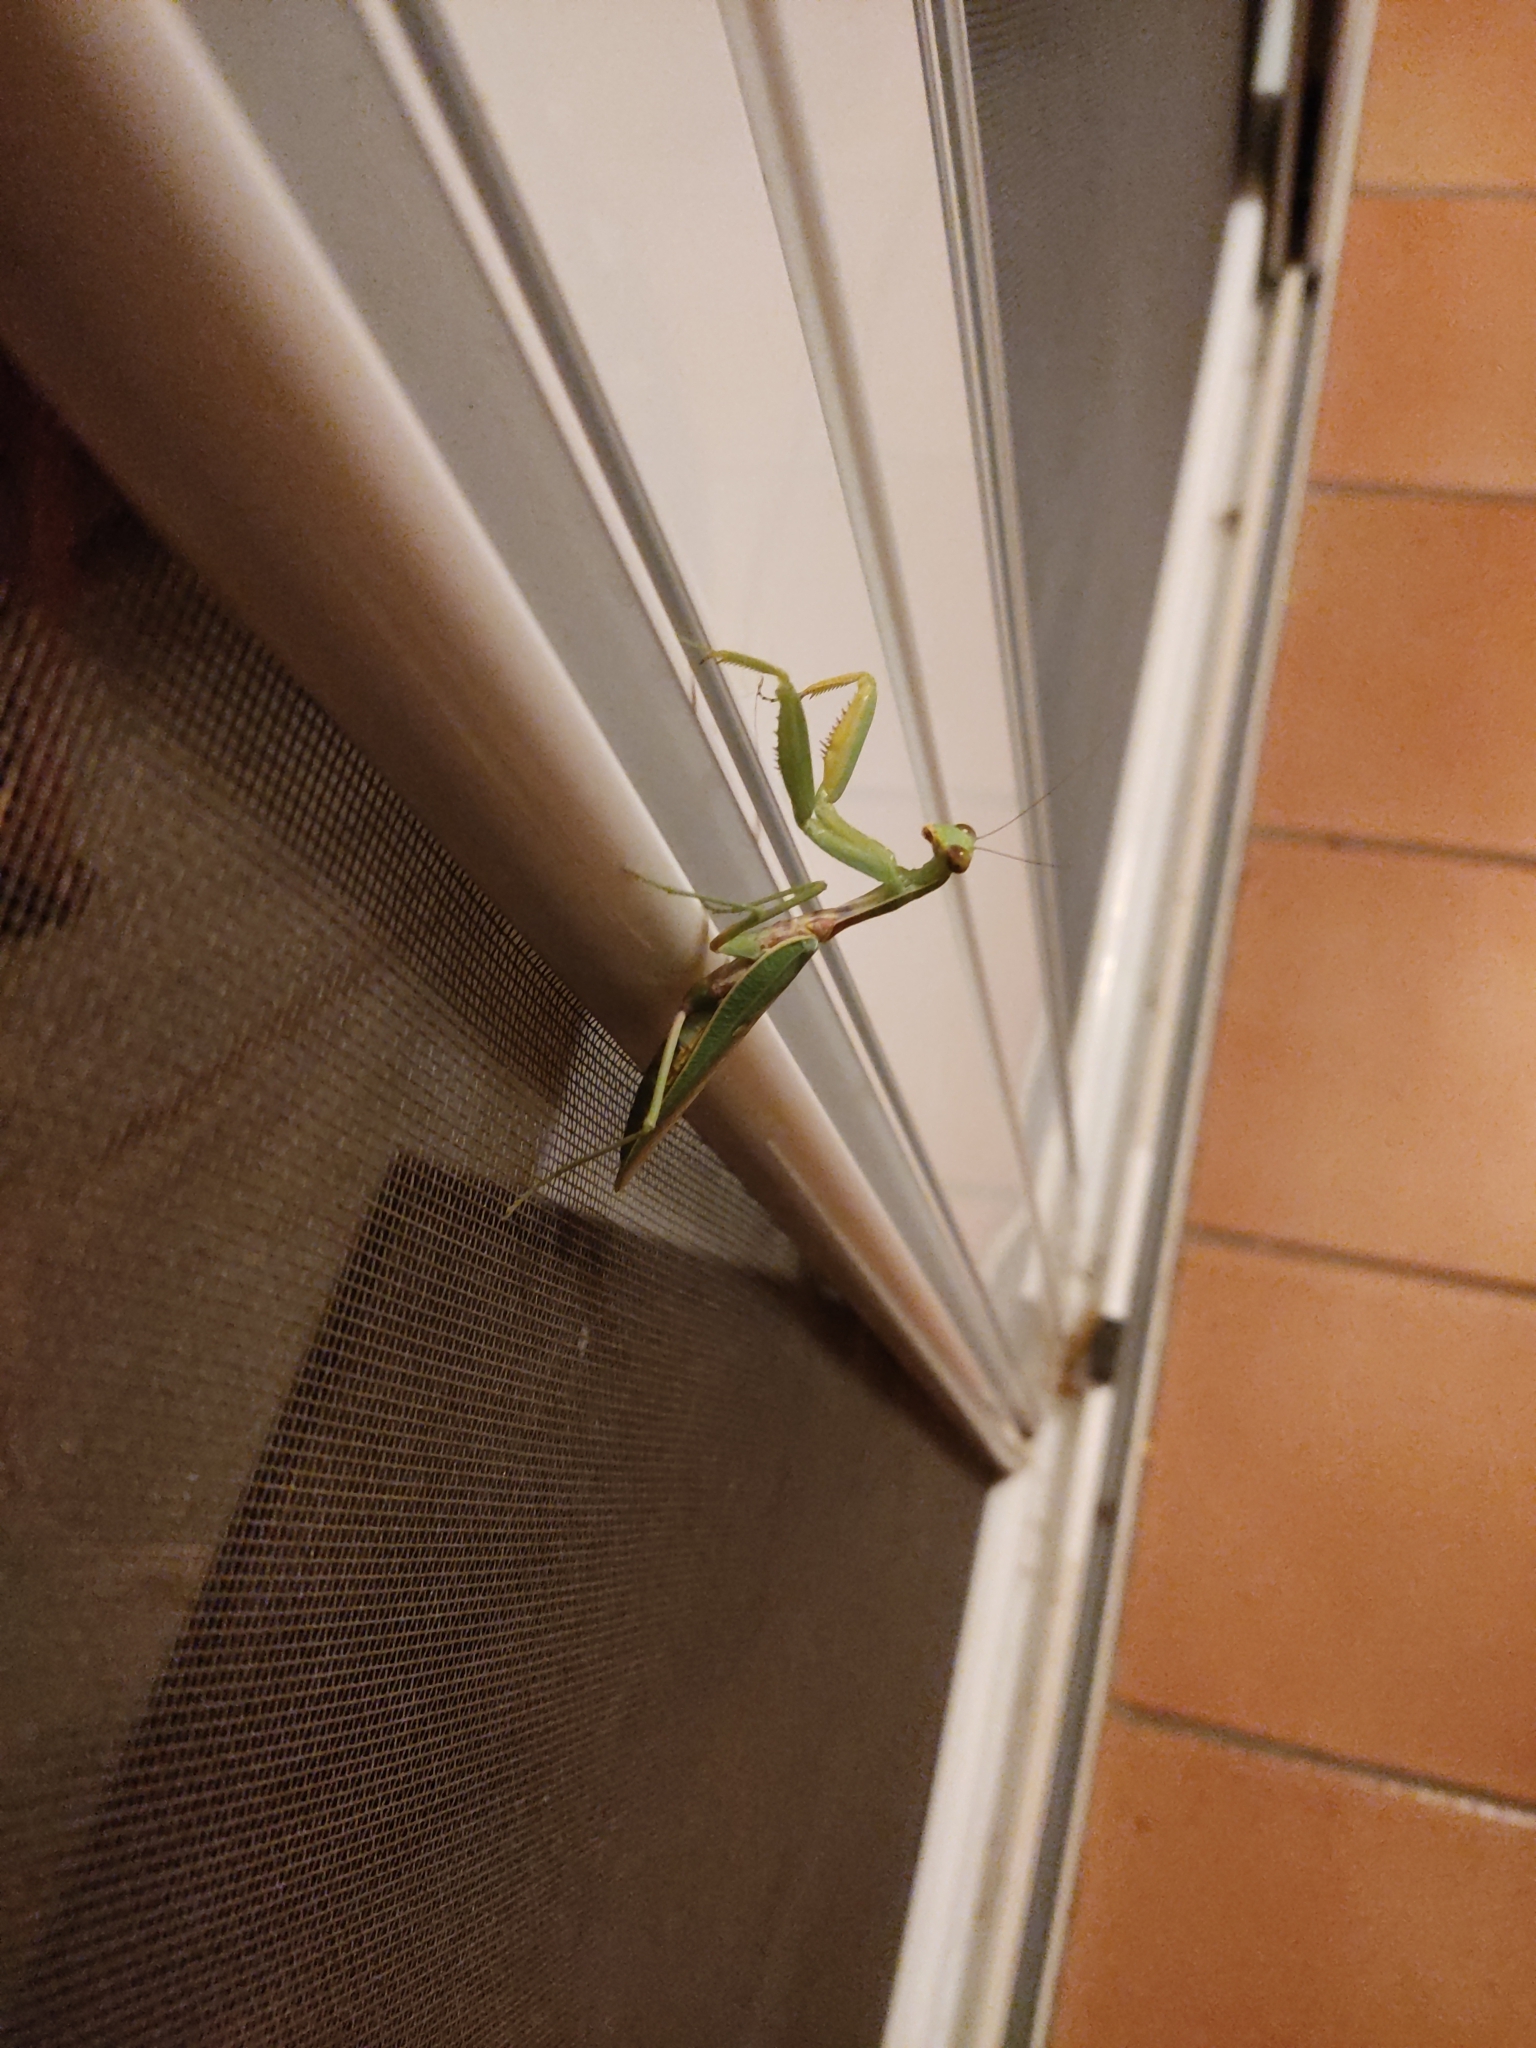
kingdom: Animalia
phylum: Arthropoda
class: Insecta
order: Mantodea
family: Mantidae
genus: Hierodula
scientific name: Hierodula transcaucasica
